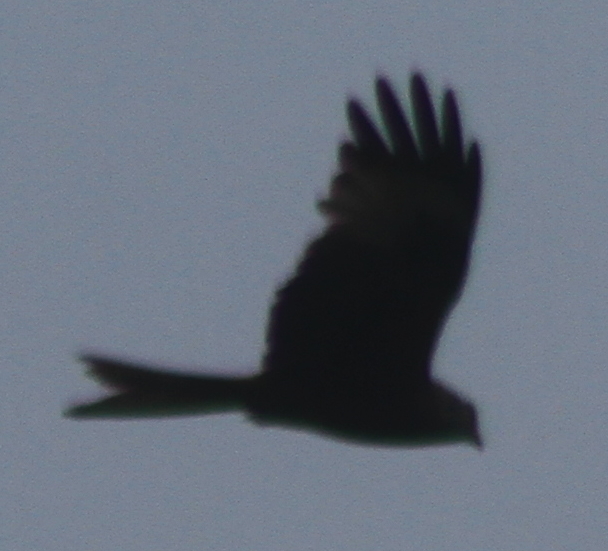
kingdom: Animalia
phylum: Chordata
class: Aves
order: Accipitriformes
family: Accipitridae
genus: Milvus
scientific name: Milvus milvus
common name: Red kite
